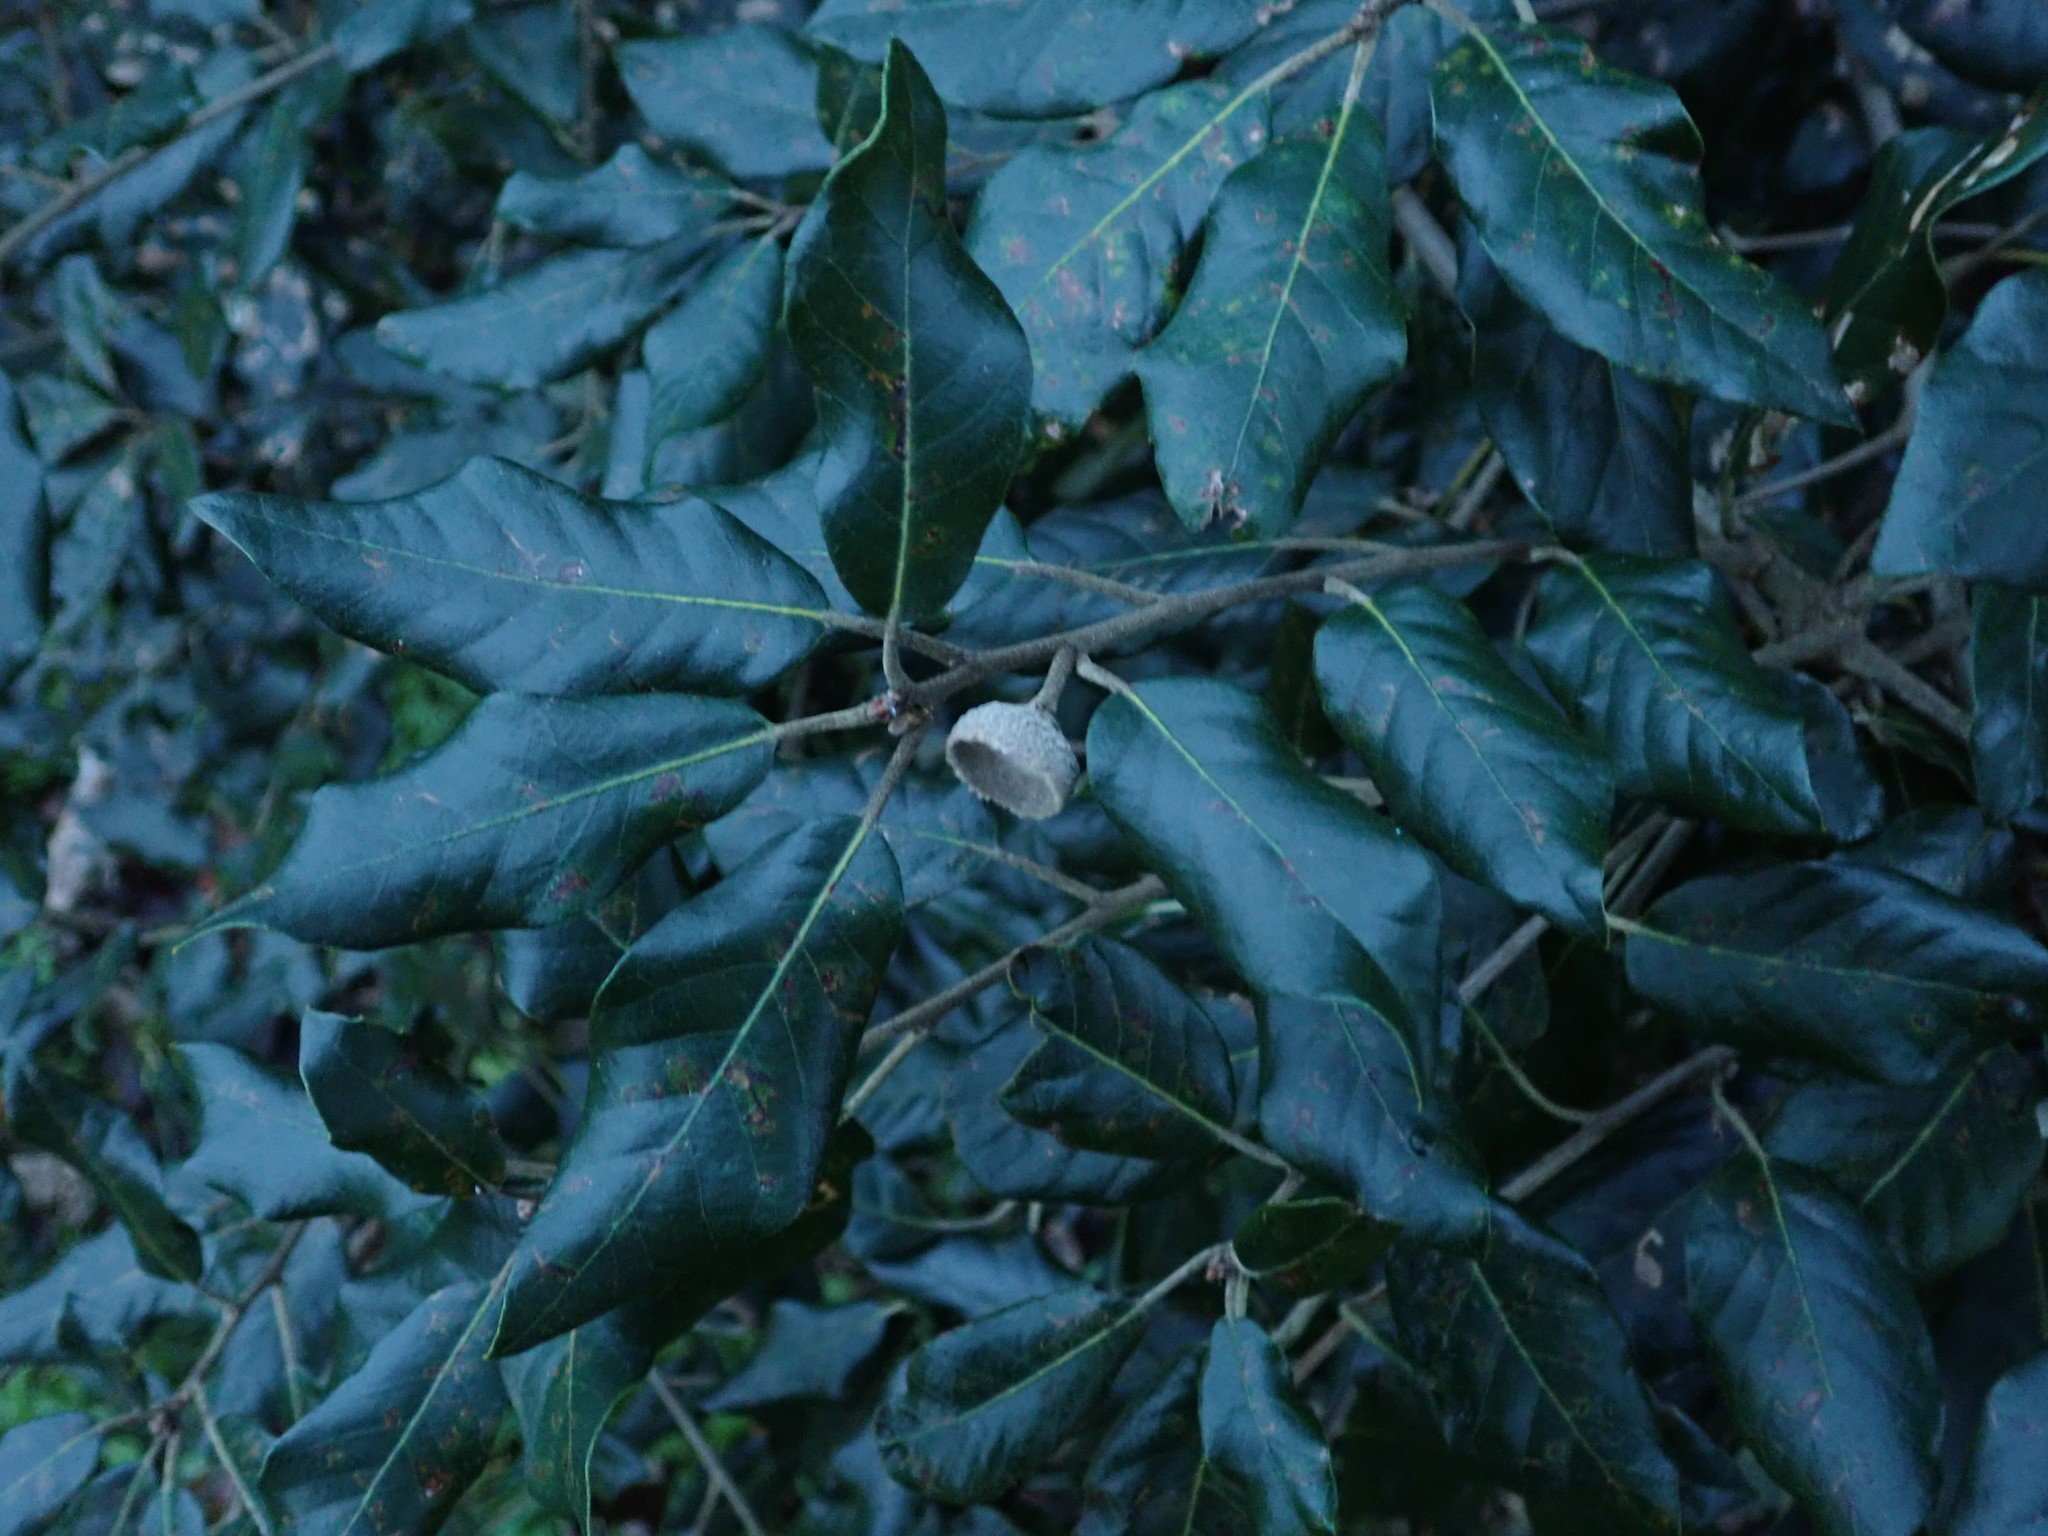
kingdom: Plantae
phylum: Tracheophyta
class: Magnoliopsida
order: Fagales
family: Fagaceae
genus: Quercus
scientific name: Quercus ilex
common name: Evergreen oak
